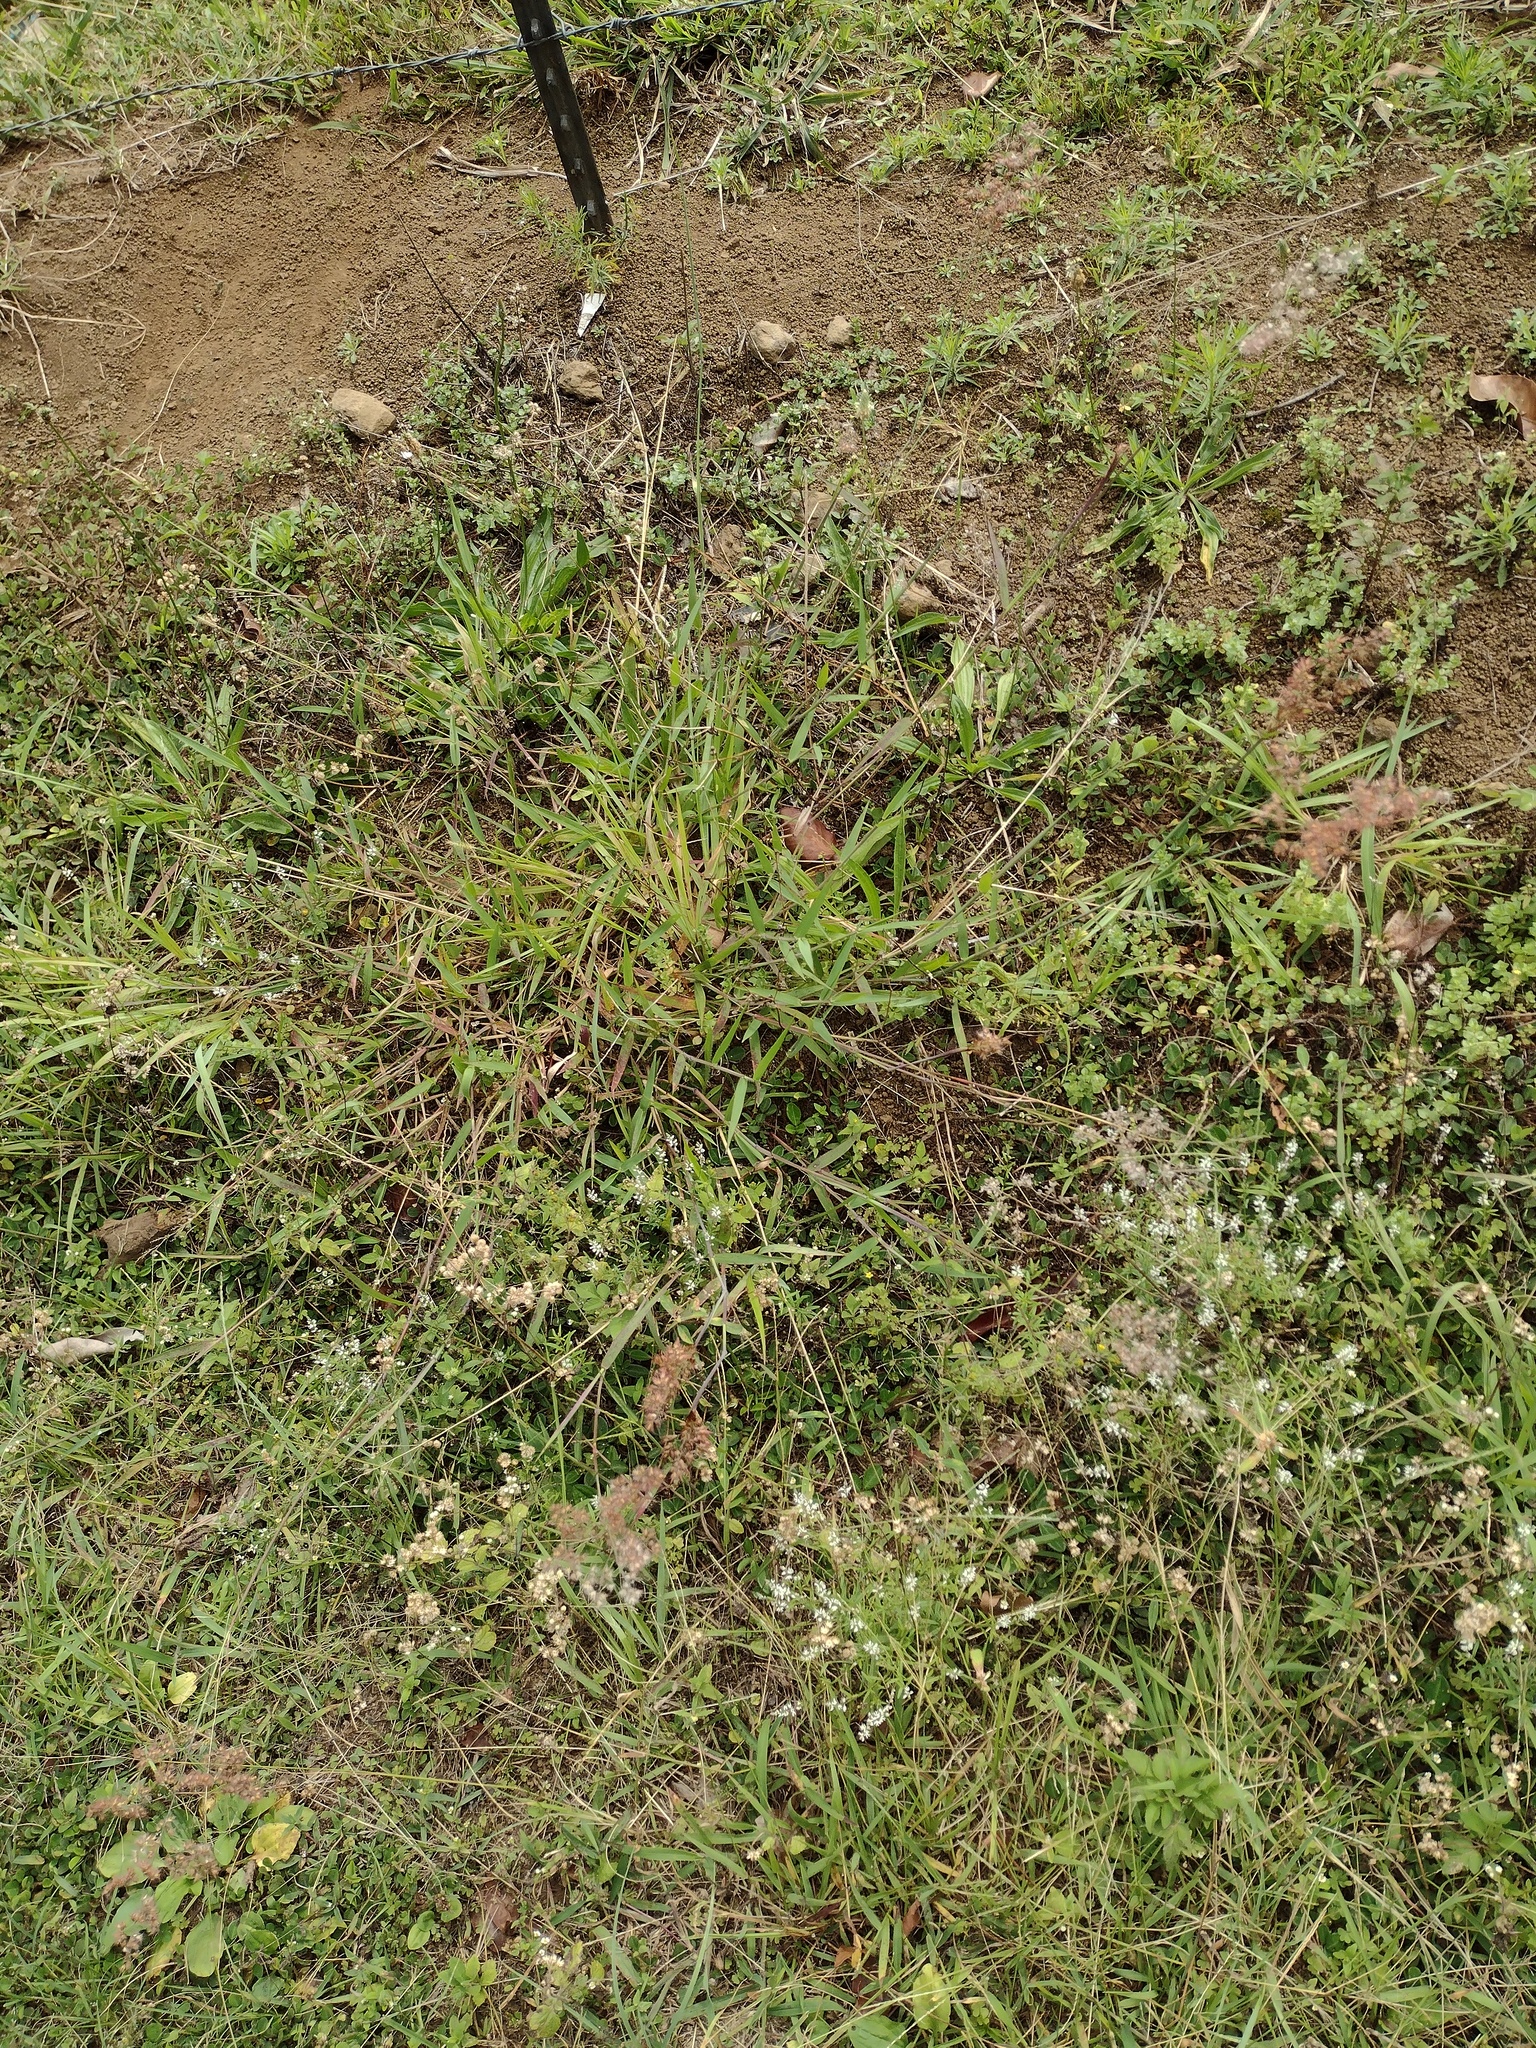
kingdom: Plantae
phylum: Tracheophyta
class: Liliopsida
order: Poales
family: Poaceae
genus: Melinis
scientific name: Melinis repens
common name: Rose natal grass
